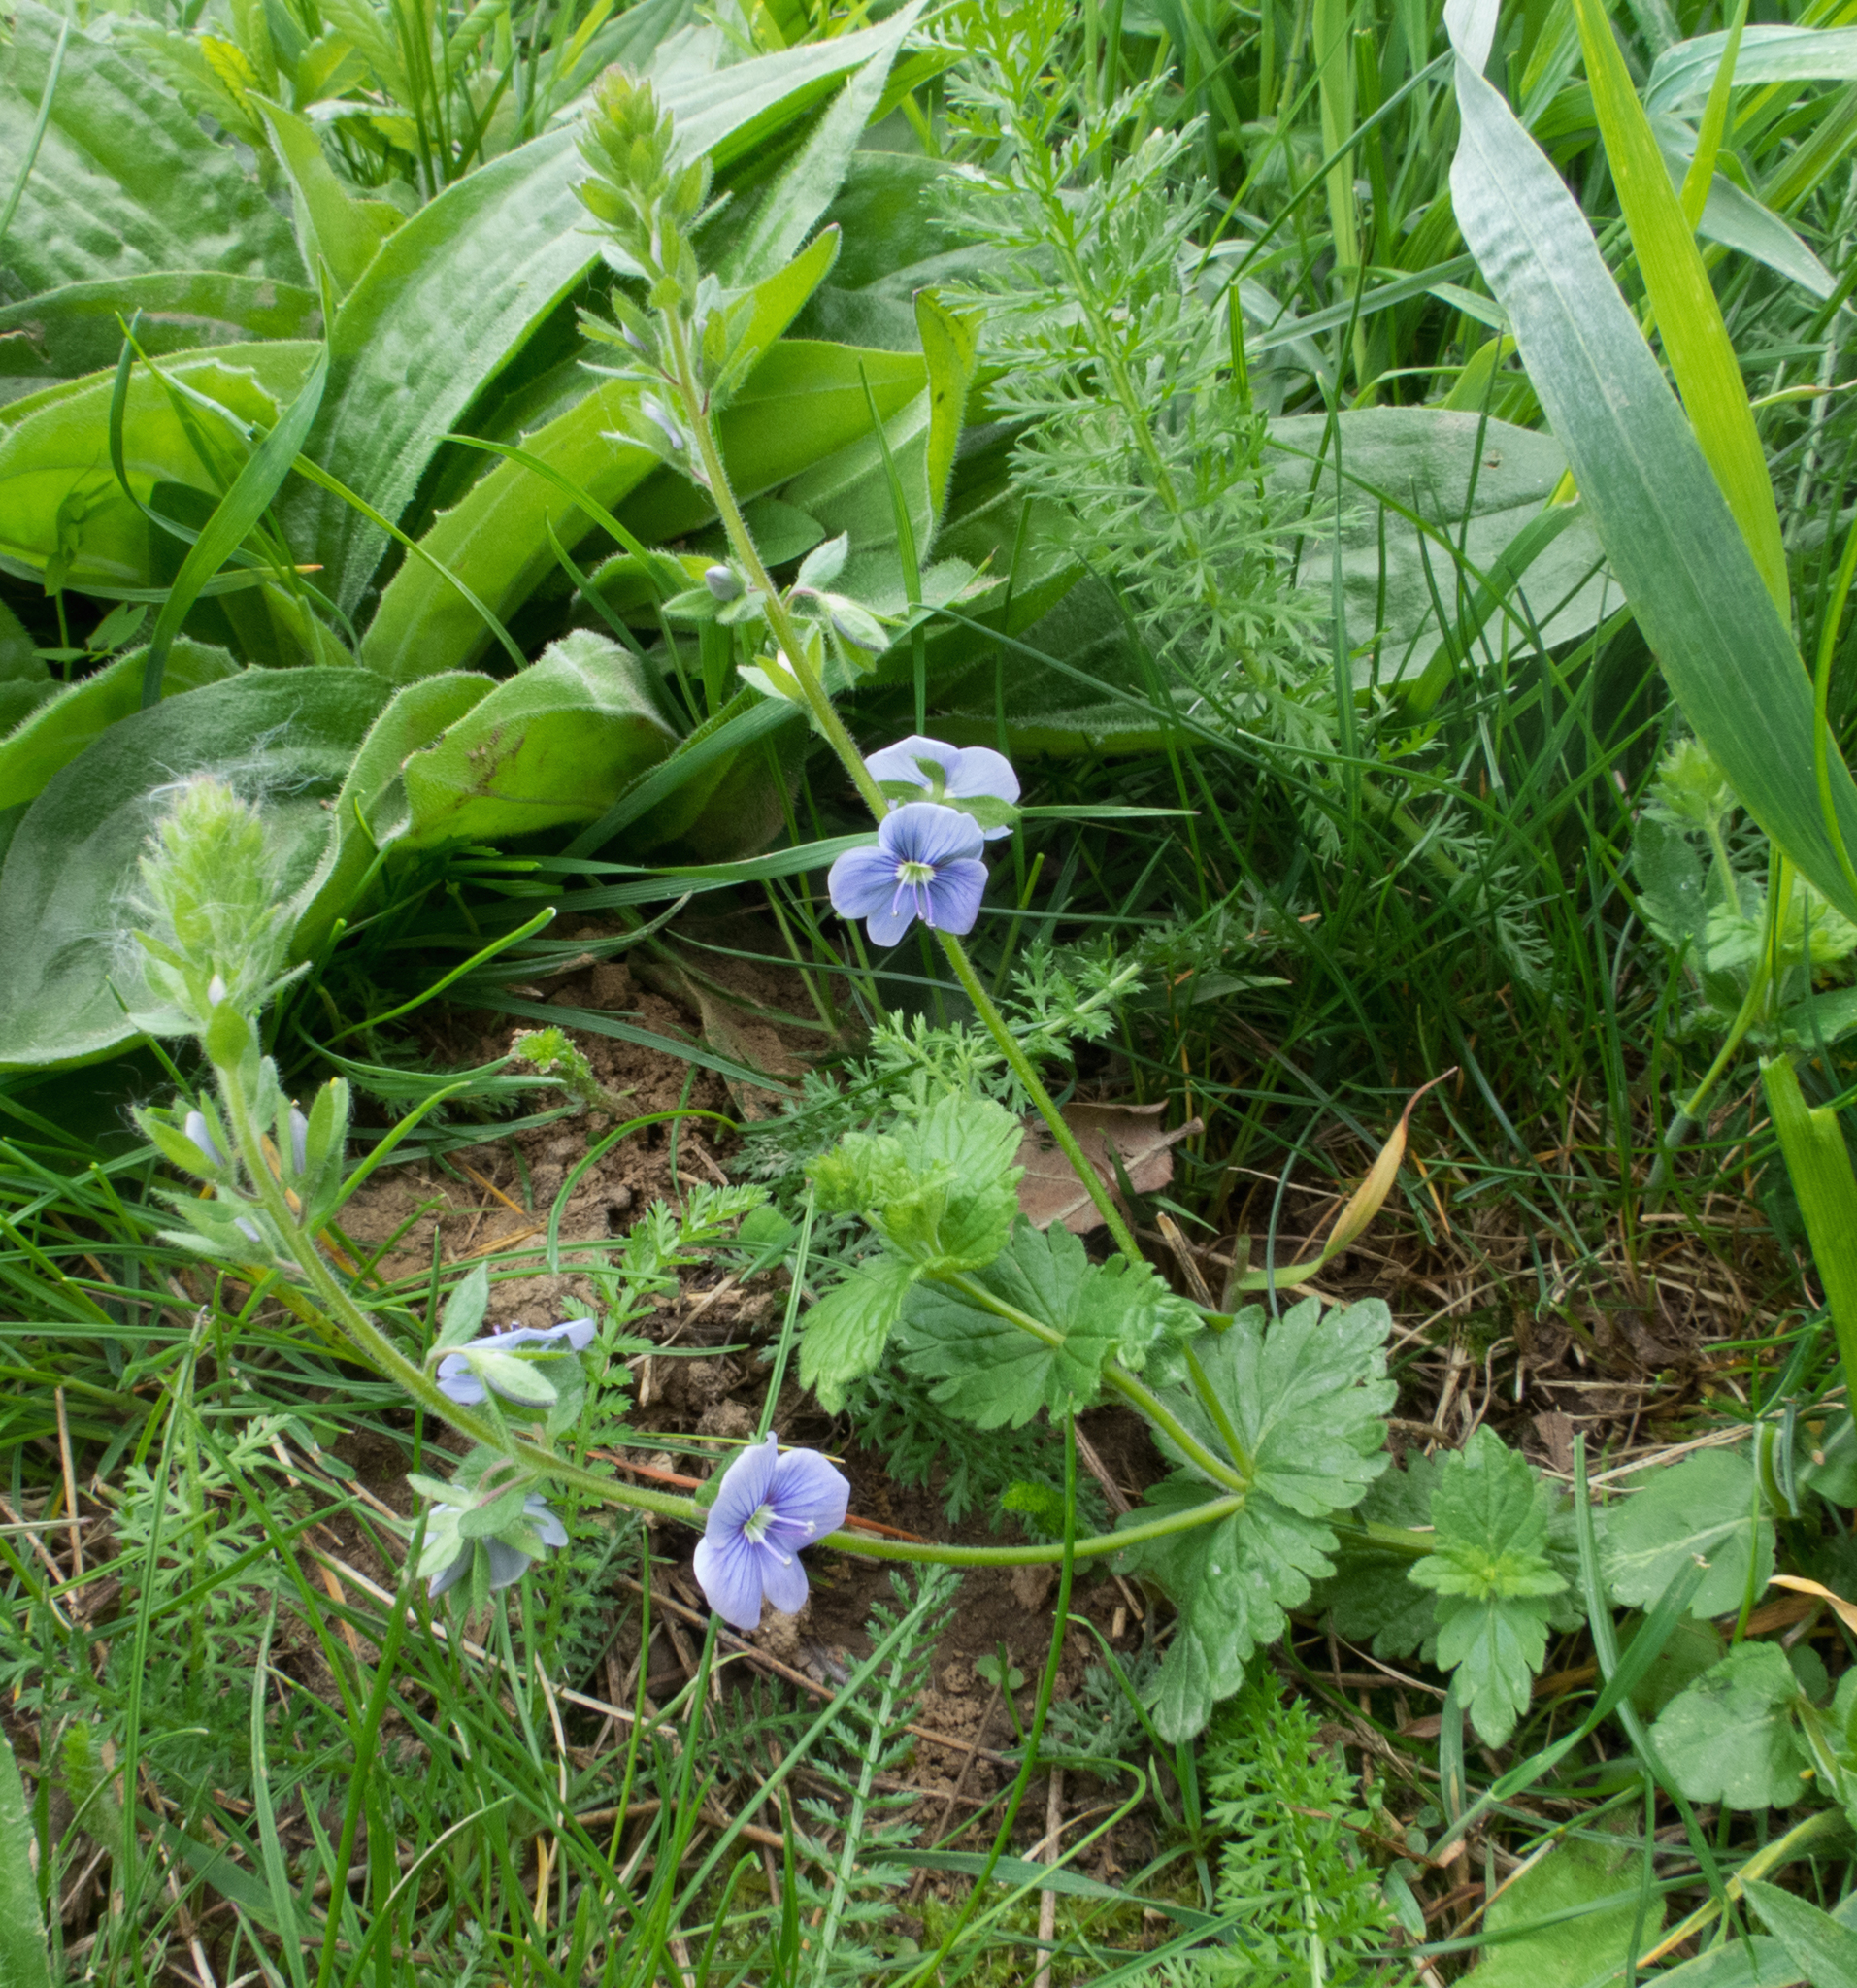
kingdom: Plantae
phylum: Tracheophyta
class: Magnoliopsida
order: Lamiales
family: Plantaginaceae
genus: Veronica
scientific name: Veronica chamaedrys
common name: Germander speedwell
